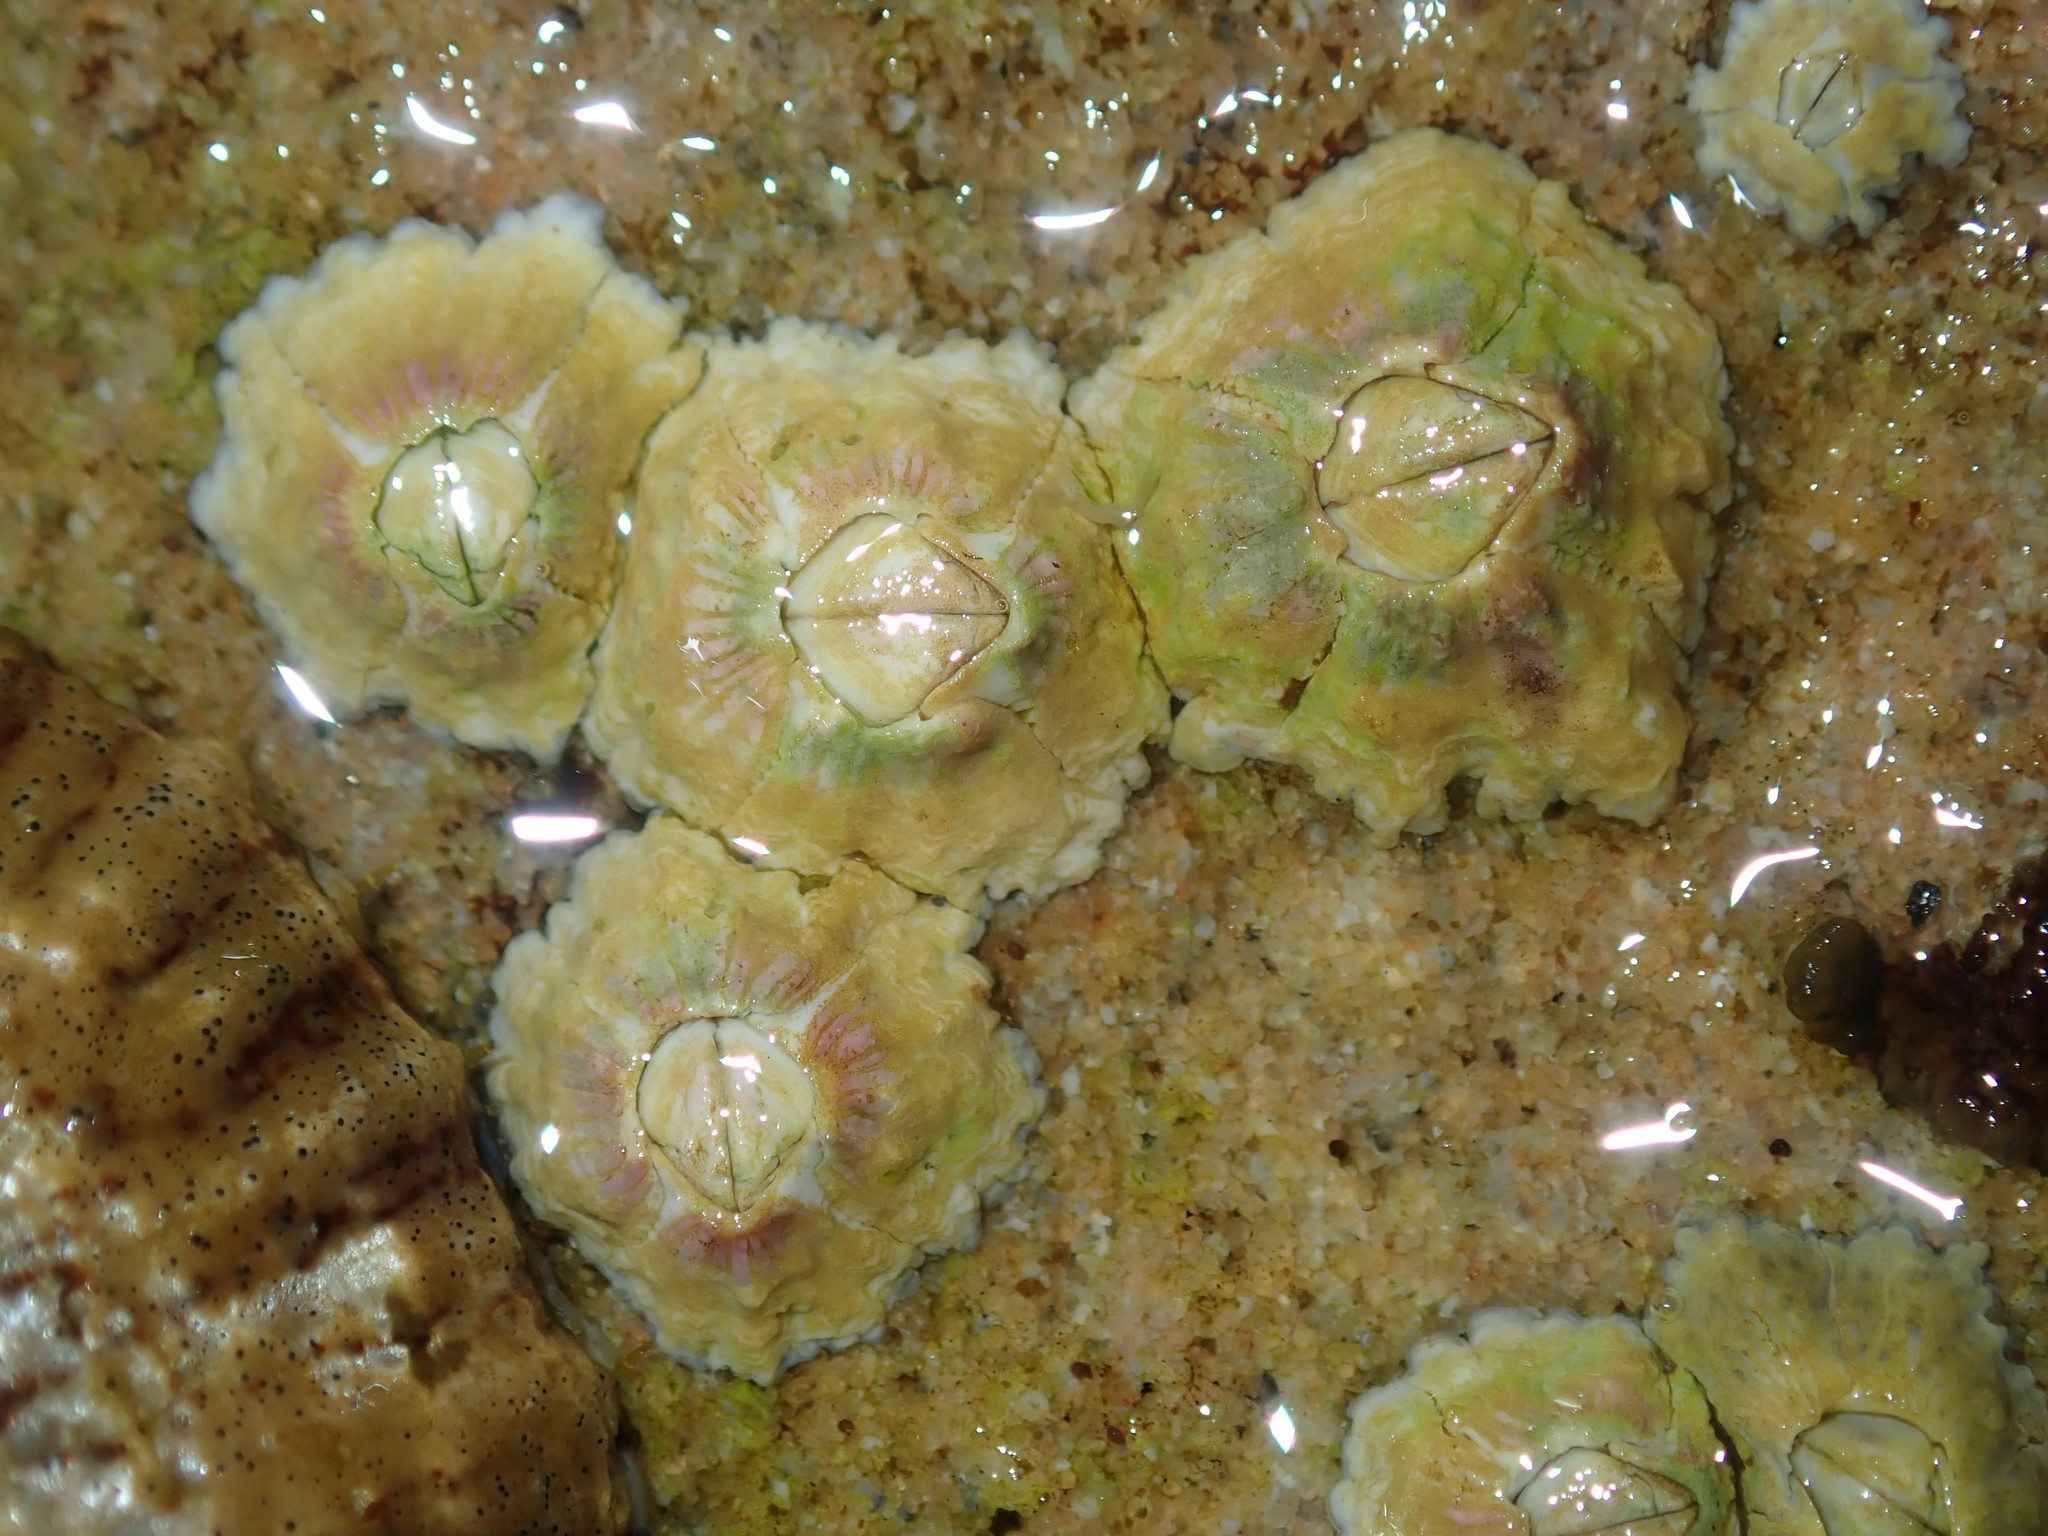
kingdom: Animalia
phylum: Arthropoda
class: Maxillopoda
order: Sessilia
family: Tetraclitidae
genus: Tesseropora
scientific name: Tesseropora rosea
